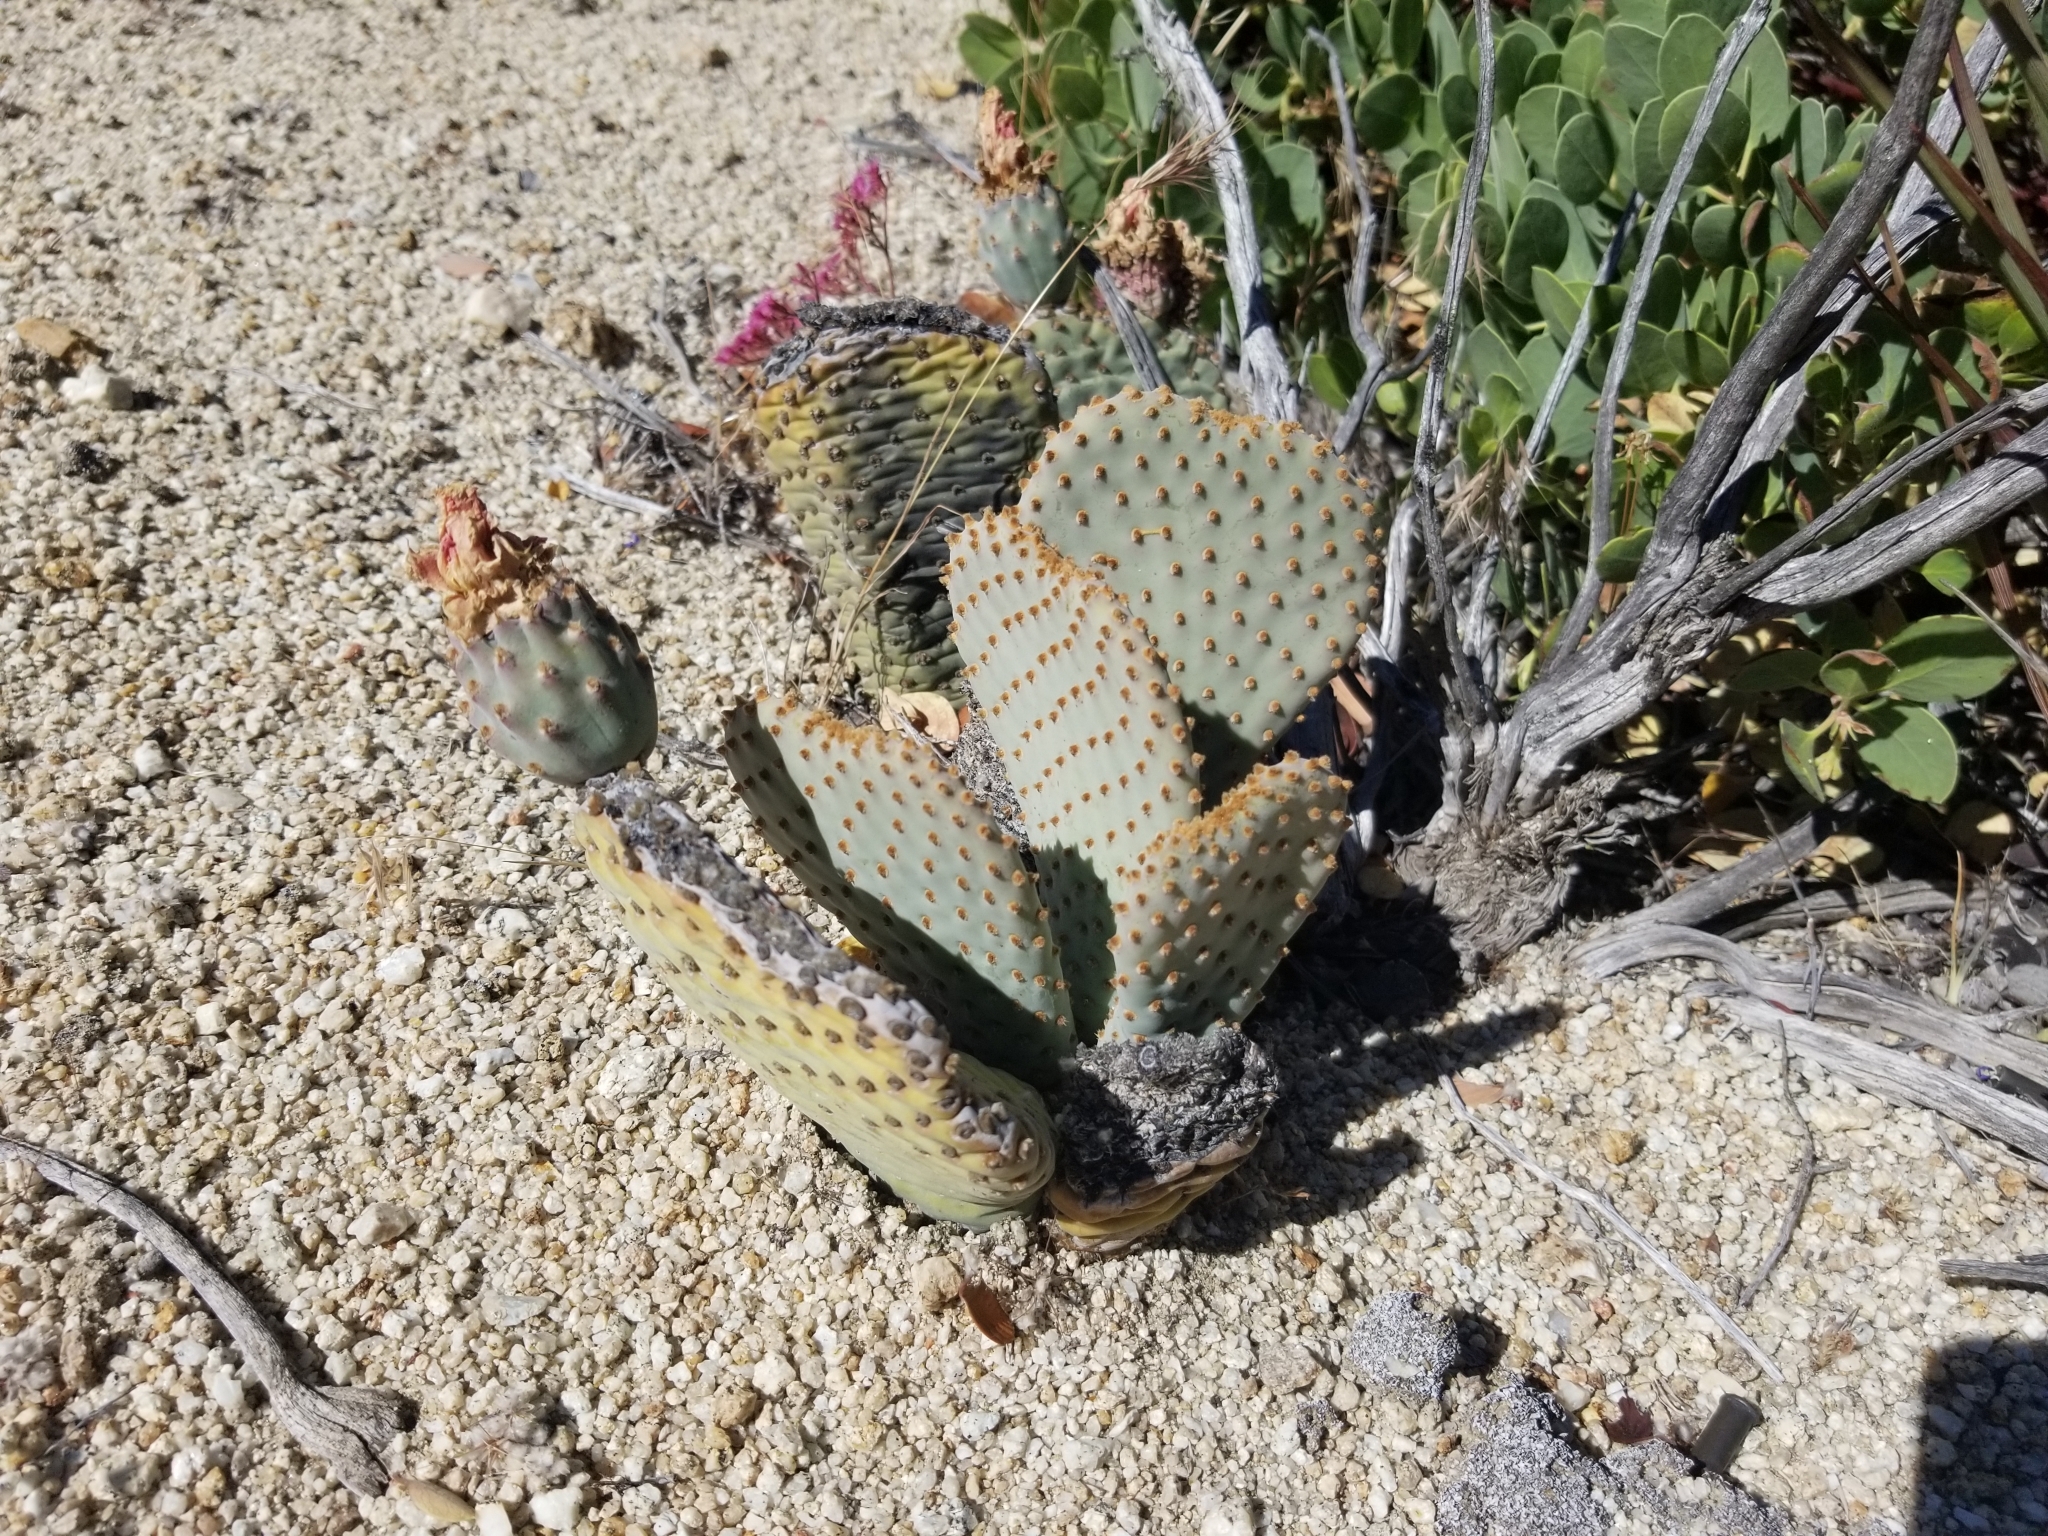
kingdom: Plantae
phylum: Tracheophyta
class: Magnoliopsida
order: Caryophyllales
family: Cactaceae
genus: Opuntia
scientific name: Opuntia basilaris
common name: Beavertail prickly-pear
